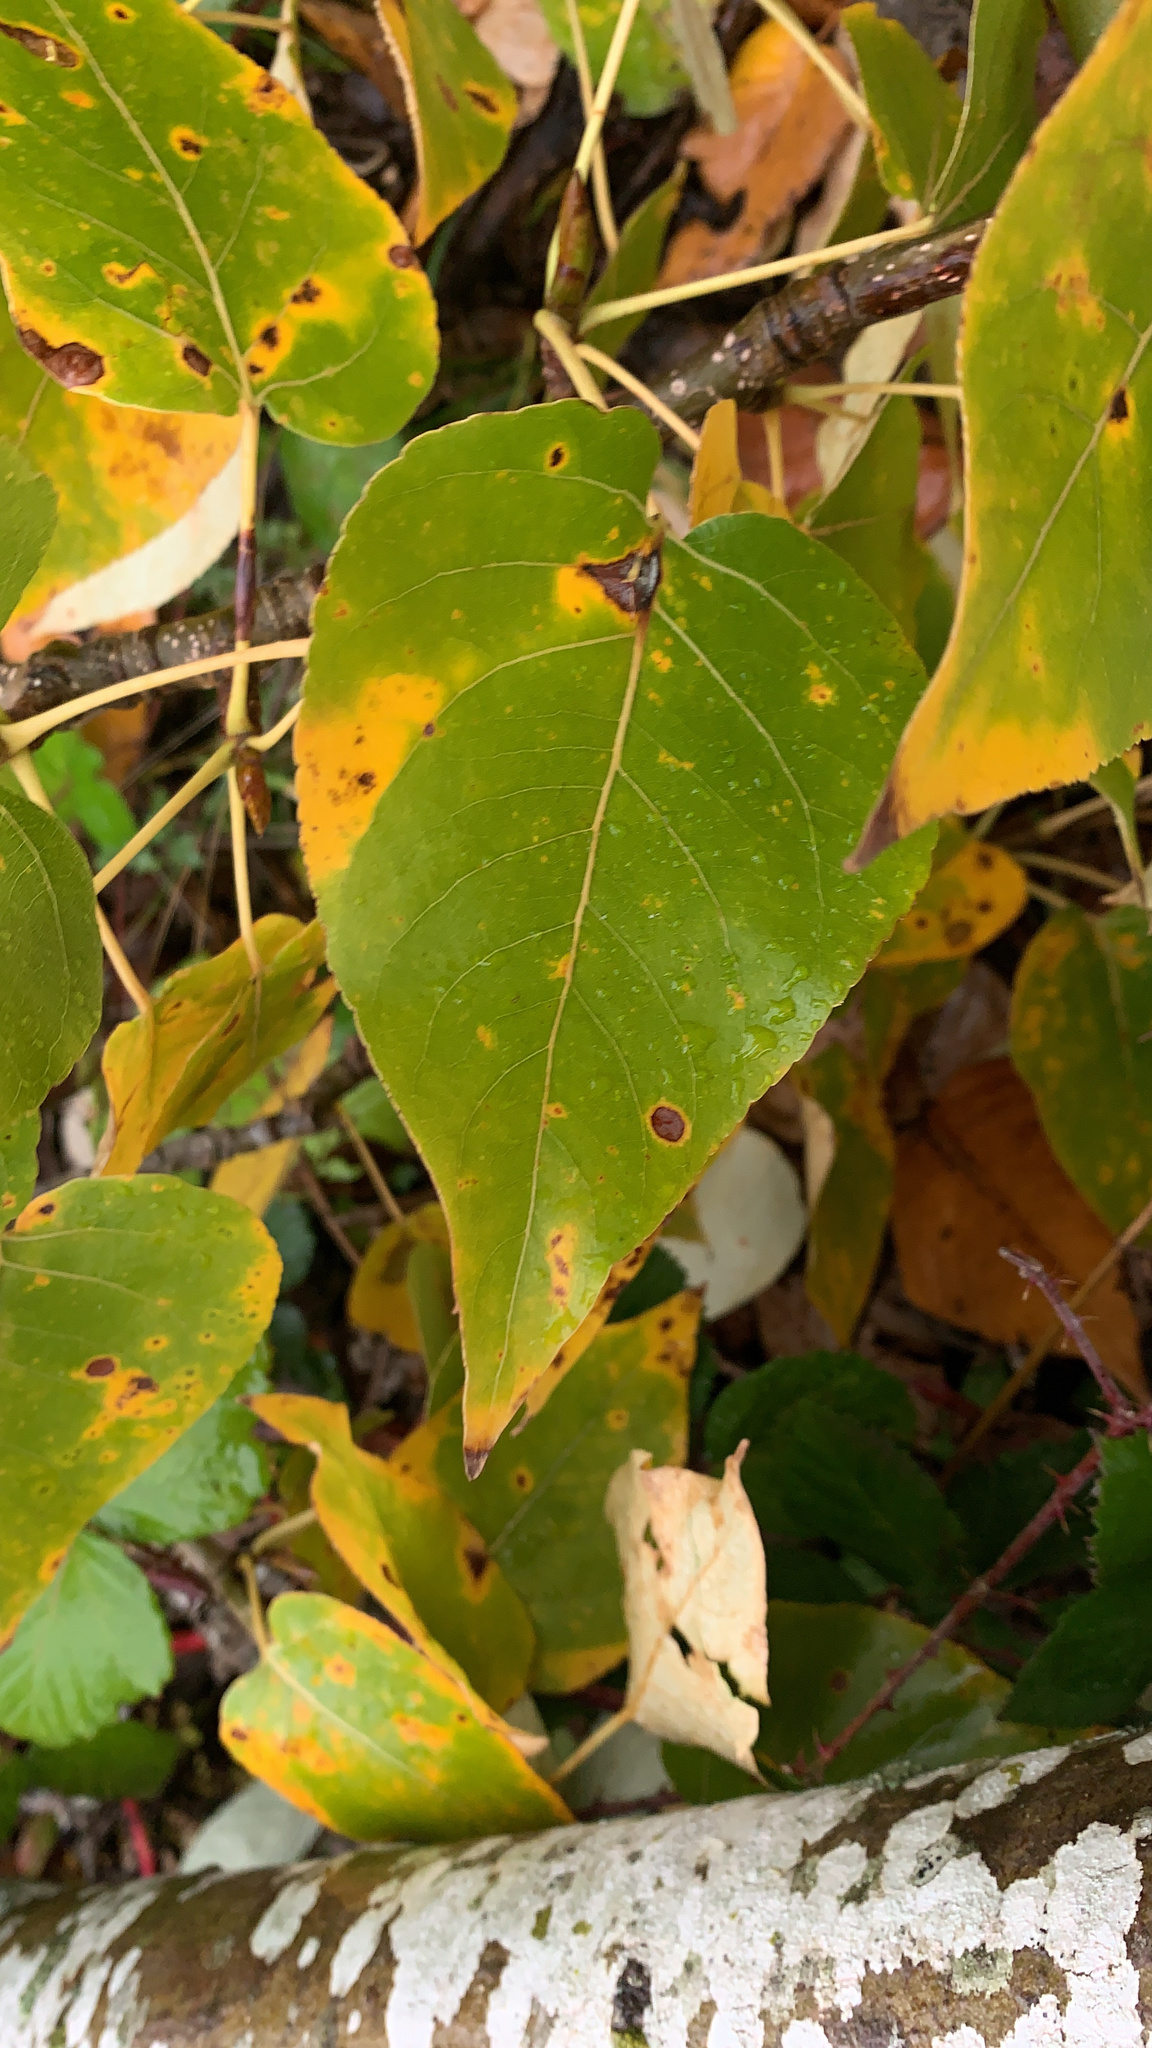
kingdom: Plantae
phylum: Tracheophyta
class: Magnoliopsida
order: Malpighiales
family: Salicaceae
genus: Populus
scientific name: Populus trichocarpa
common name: Black cottonwood
